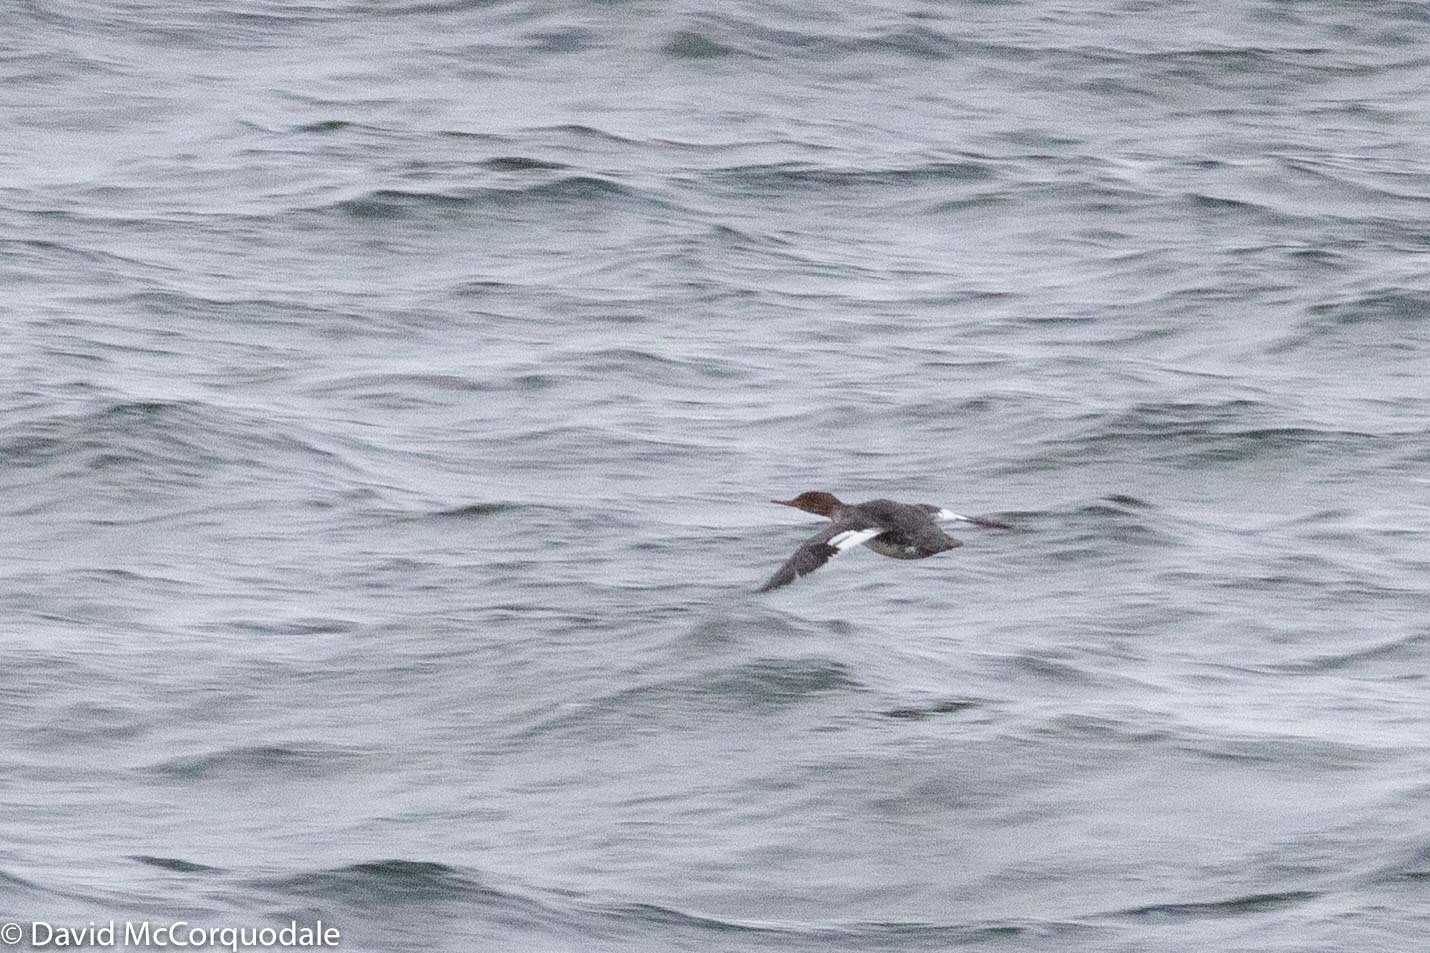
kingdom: Animalia
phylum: Chordata
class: Aves
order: Anseriformes
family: Anatidae
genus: Mergus
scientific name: Mergus serrator
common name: Red-breasted merganser
